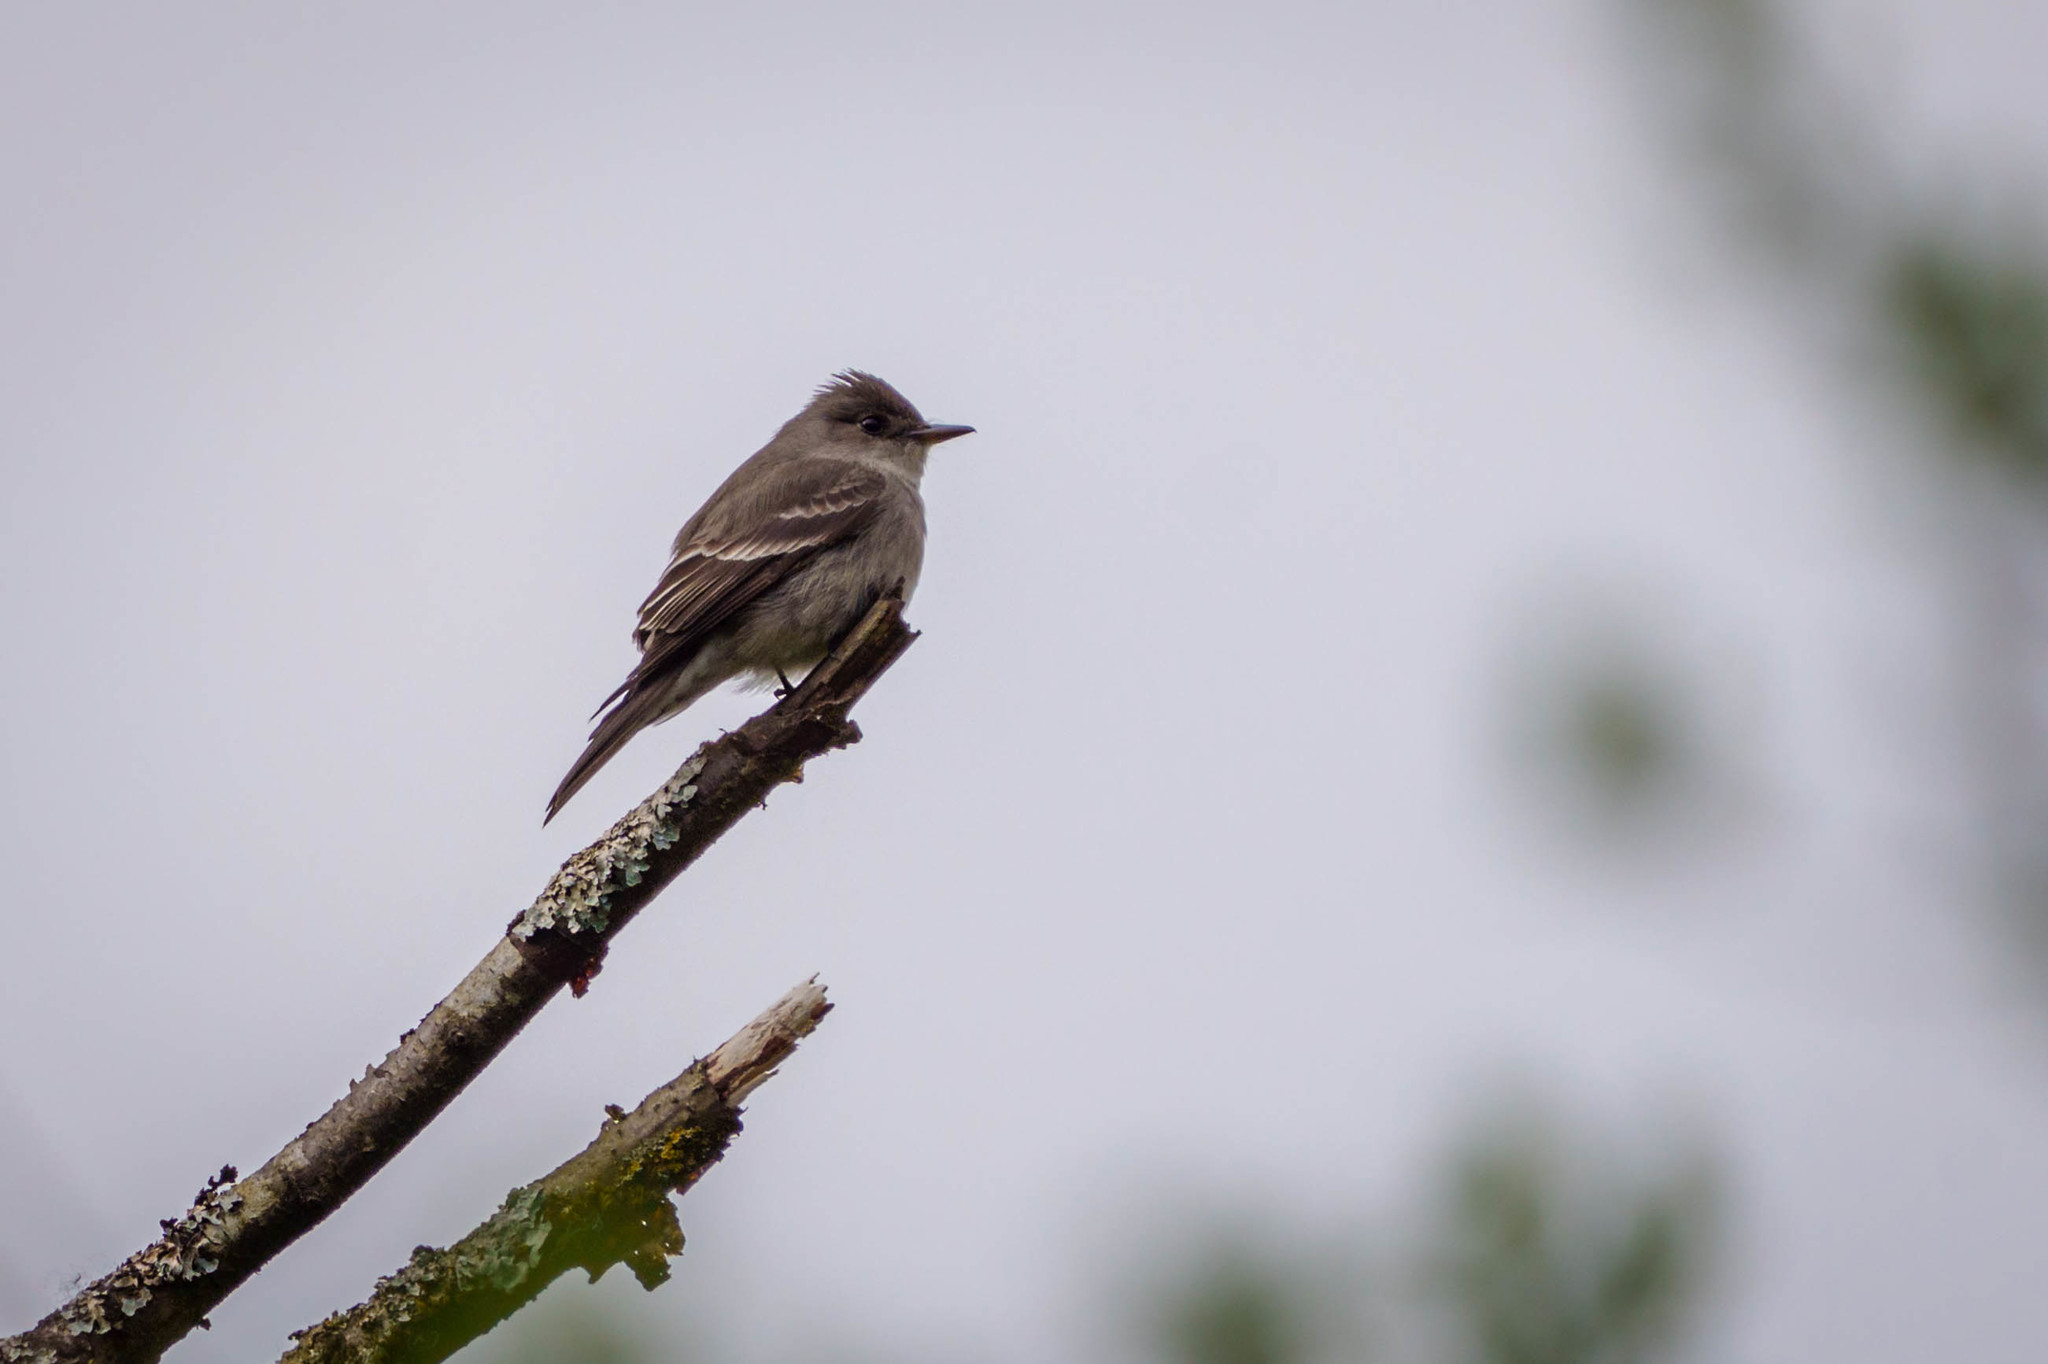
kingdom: Animalia
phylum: Chordata
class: Aves
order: Passeriformes
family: Tyrannidae
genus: Contopus
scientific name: Contopus sordidulus
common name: Western wood-pewee
